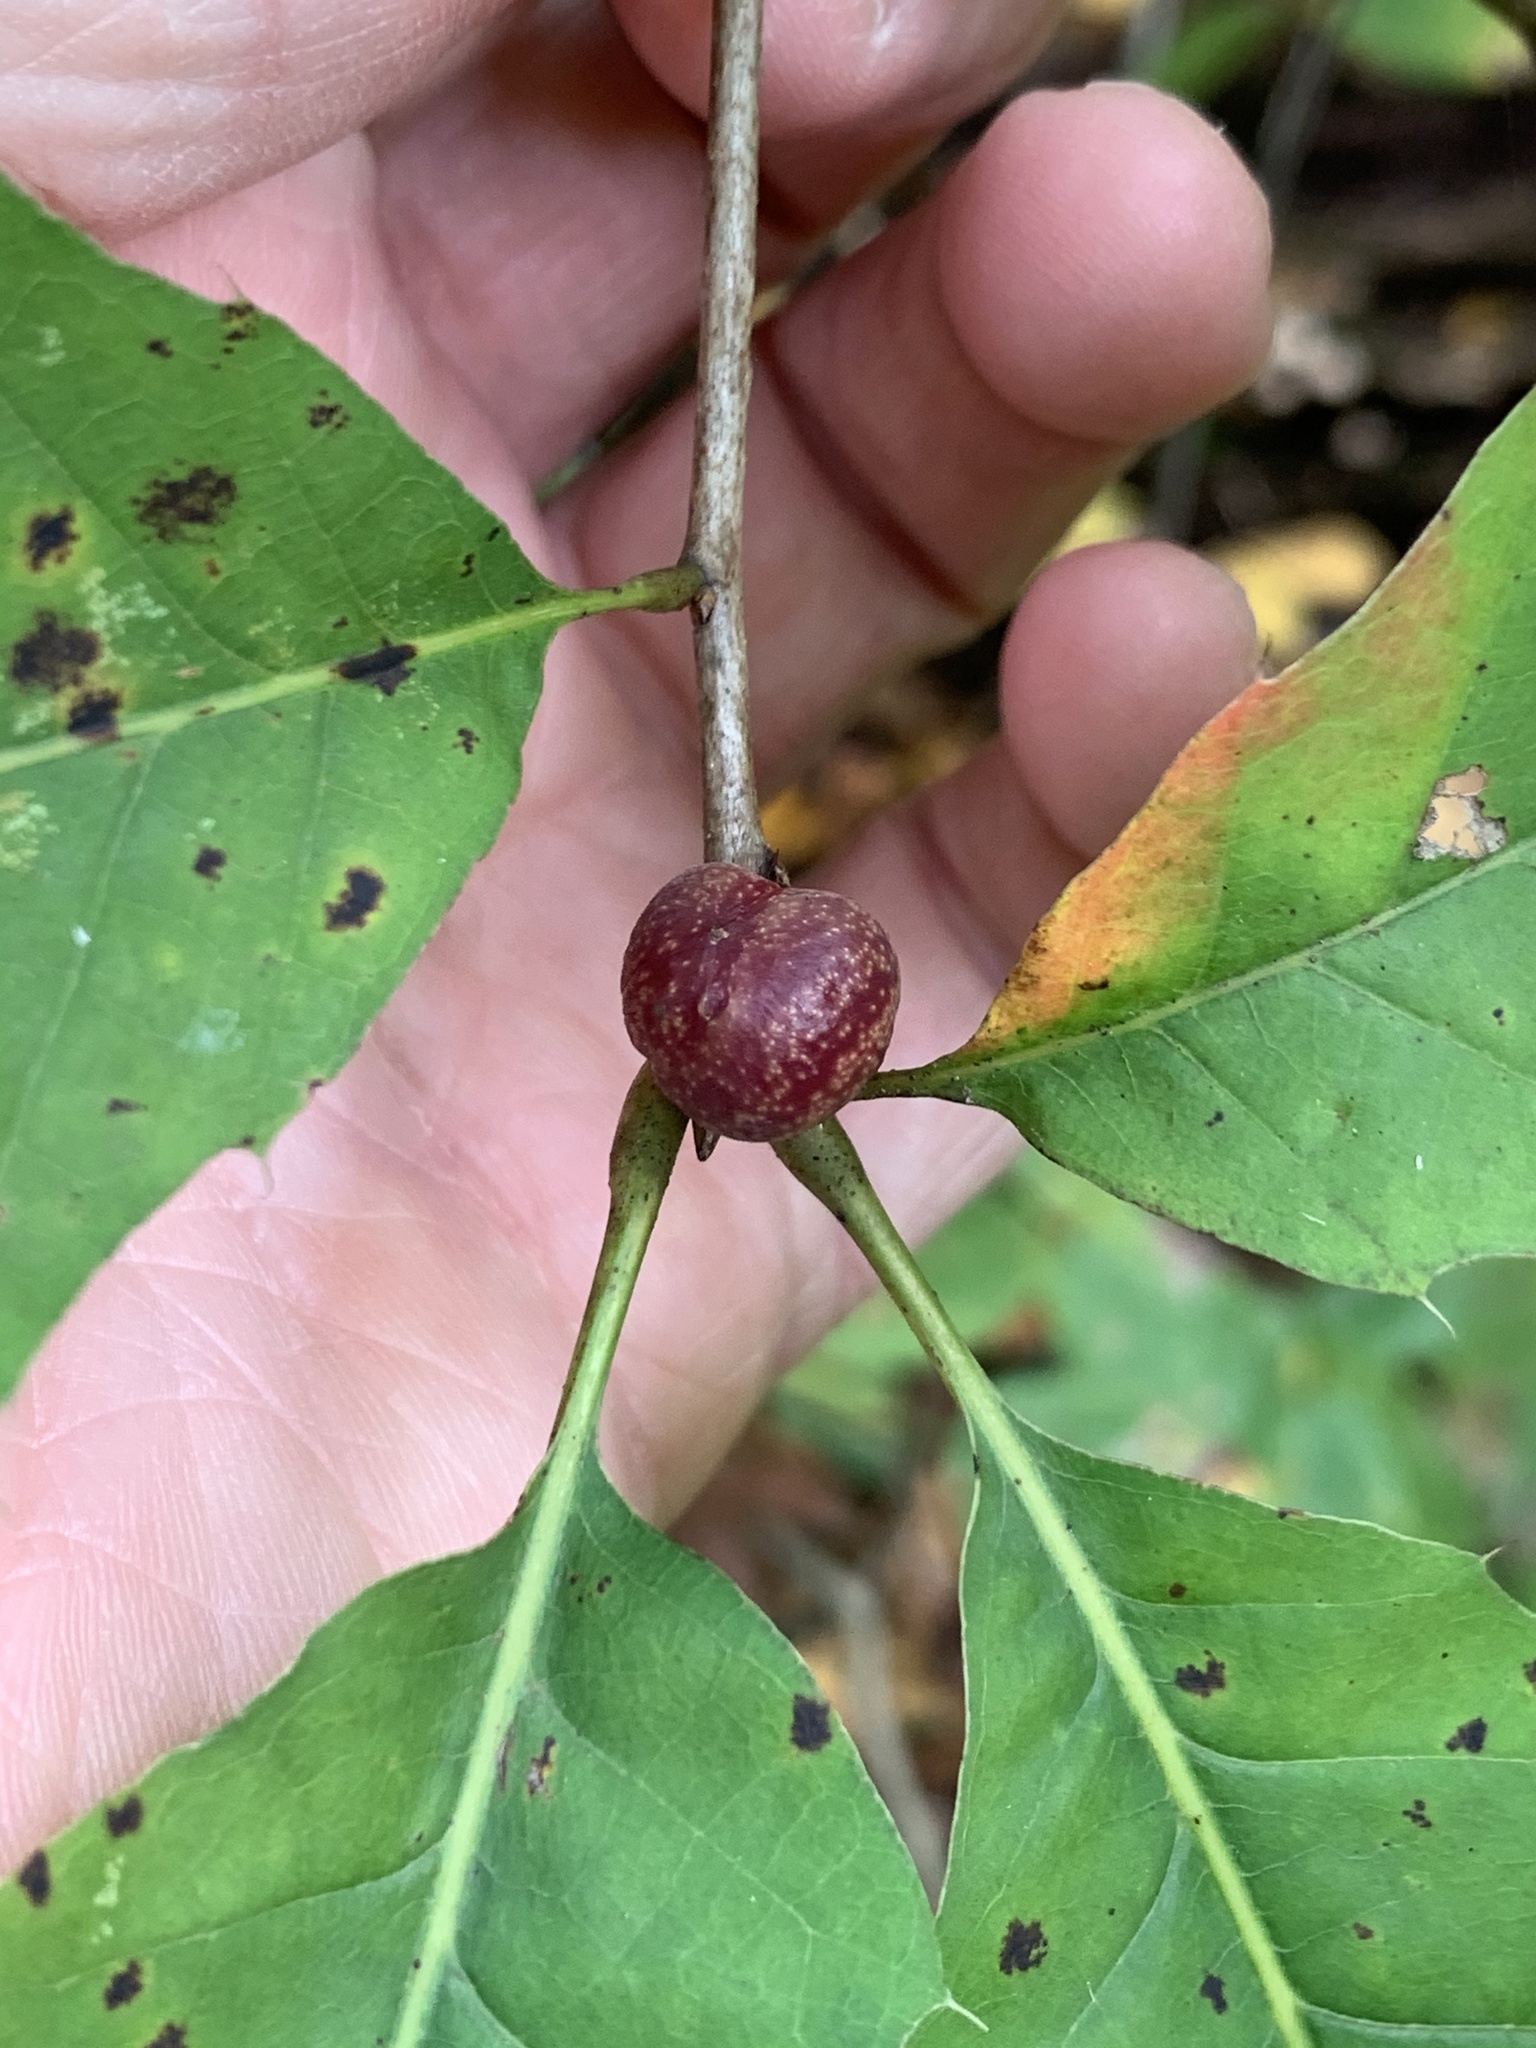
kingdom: Animalia
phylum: Arthropoda
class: Insecta
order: Hymenoptera
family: Cynipidae
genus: Kokkocynips
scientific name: Kokkocynips imbricariae
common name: Banded bullet gall wasp
